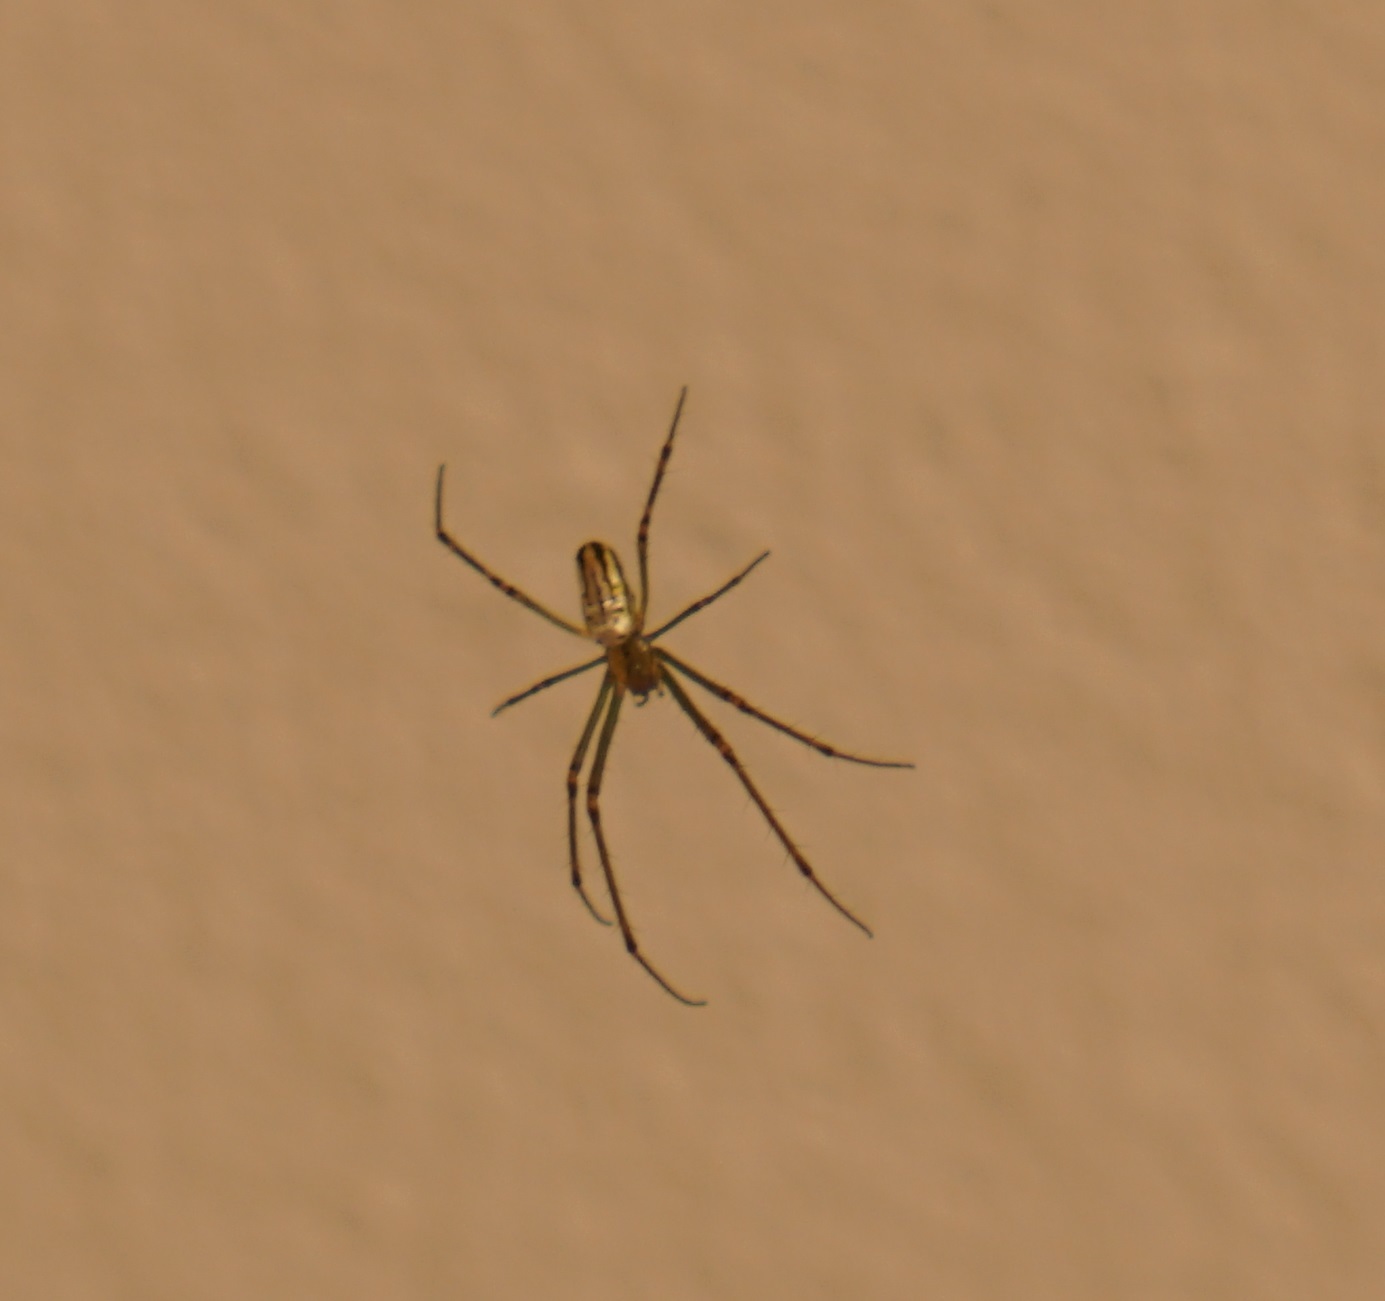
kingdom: Animalia
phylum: Arthropoda
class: Arachnida
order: Araneae
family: Tetragnathidae
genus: Leucauge
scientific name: Leucauge dromedaria
